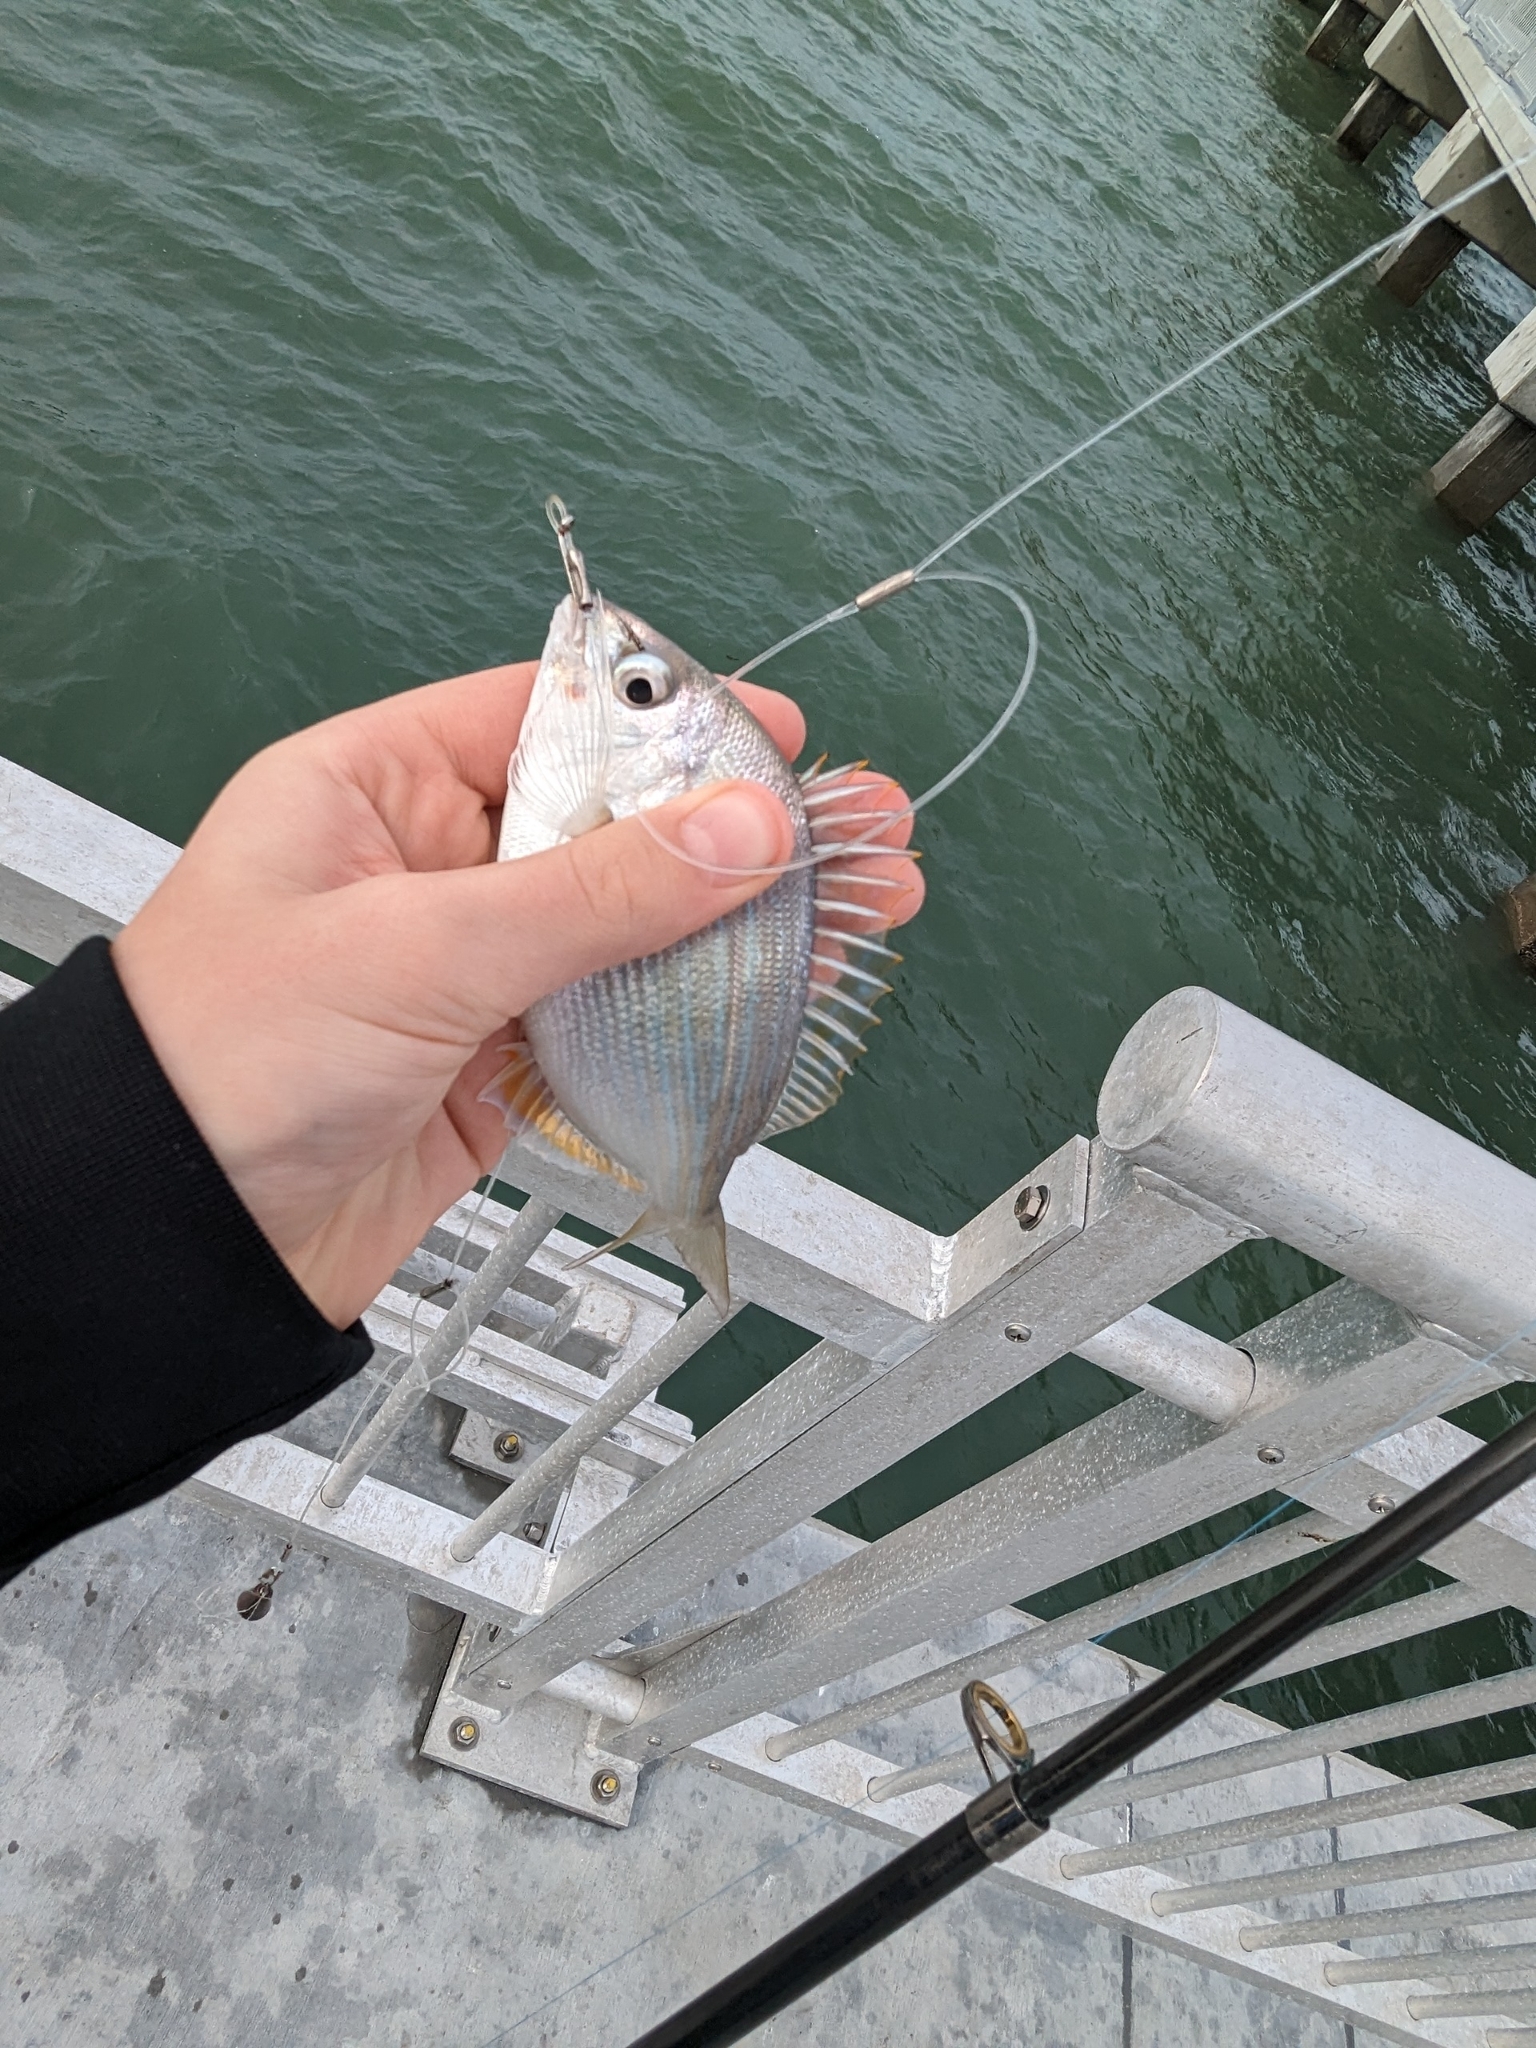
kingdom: Animalia
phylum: Chordata
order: Perciformes
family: Sparidae
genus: Lagodon
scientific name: Lagodon rhomboides
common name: Pinfish
